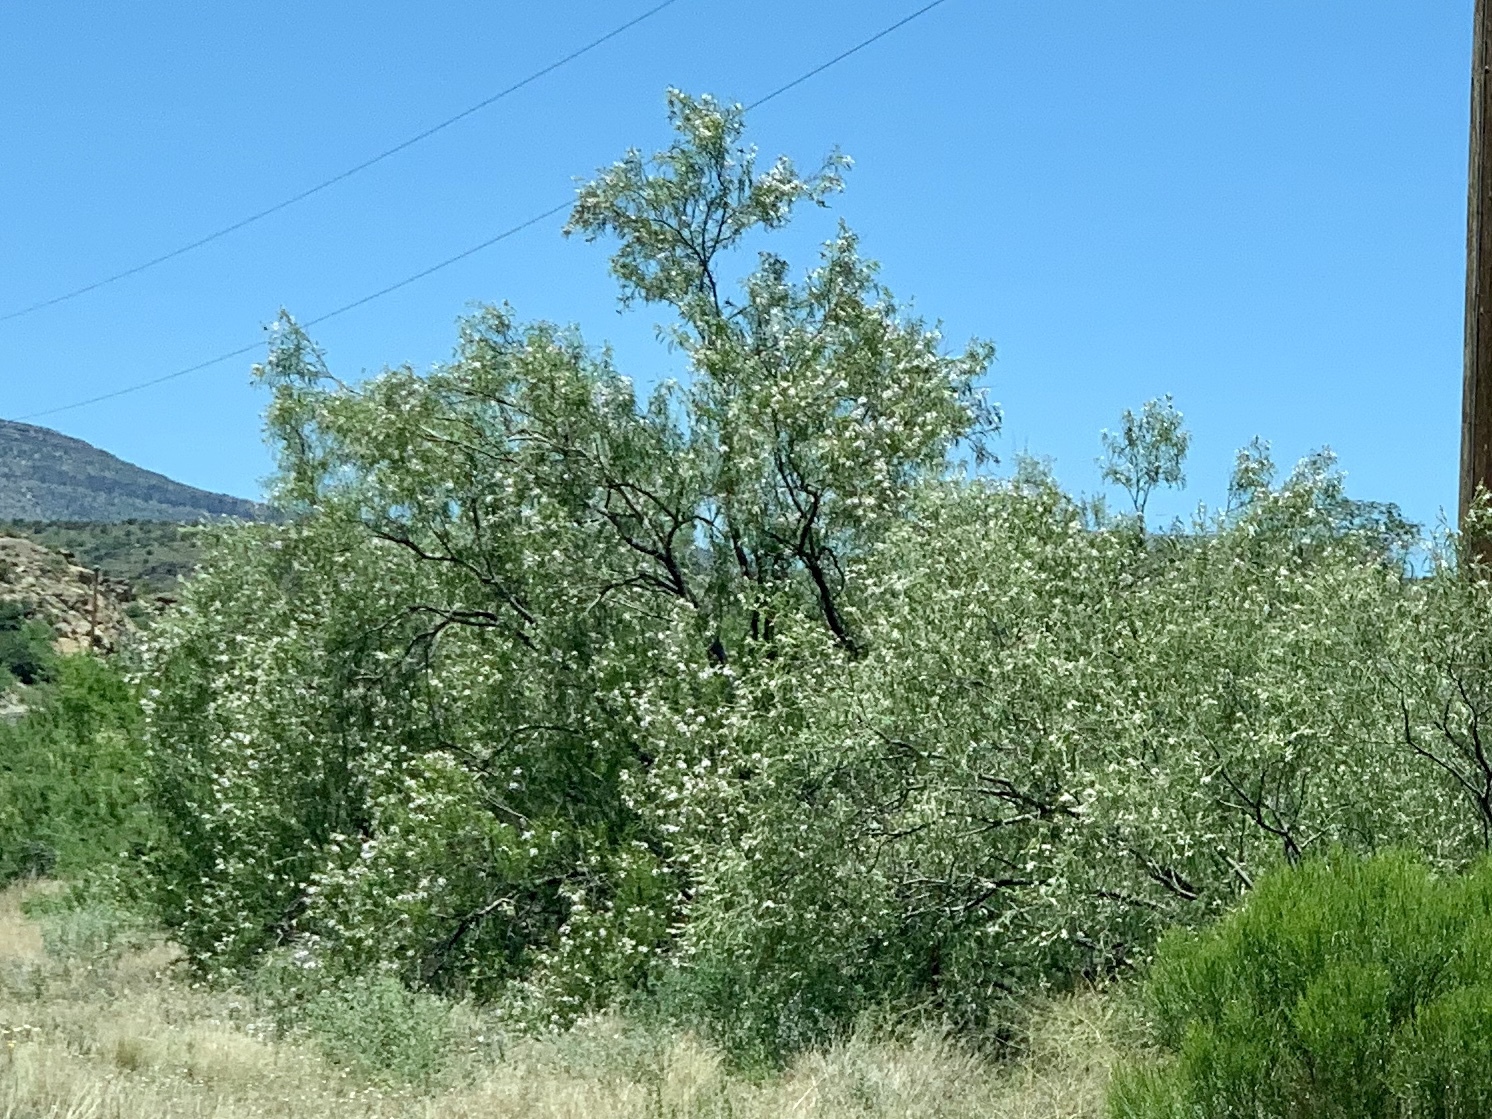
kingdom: Plantae
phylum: Tracheophyta
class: Magnoliopsida
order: Lamiales
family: Bignoniaceae
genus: Chilopsis
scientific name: Chilopsis linearis
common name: Desert-willow
